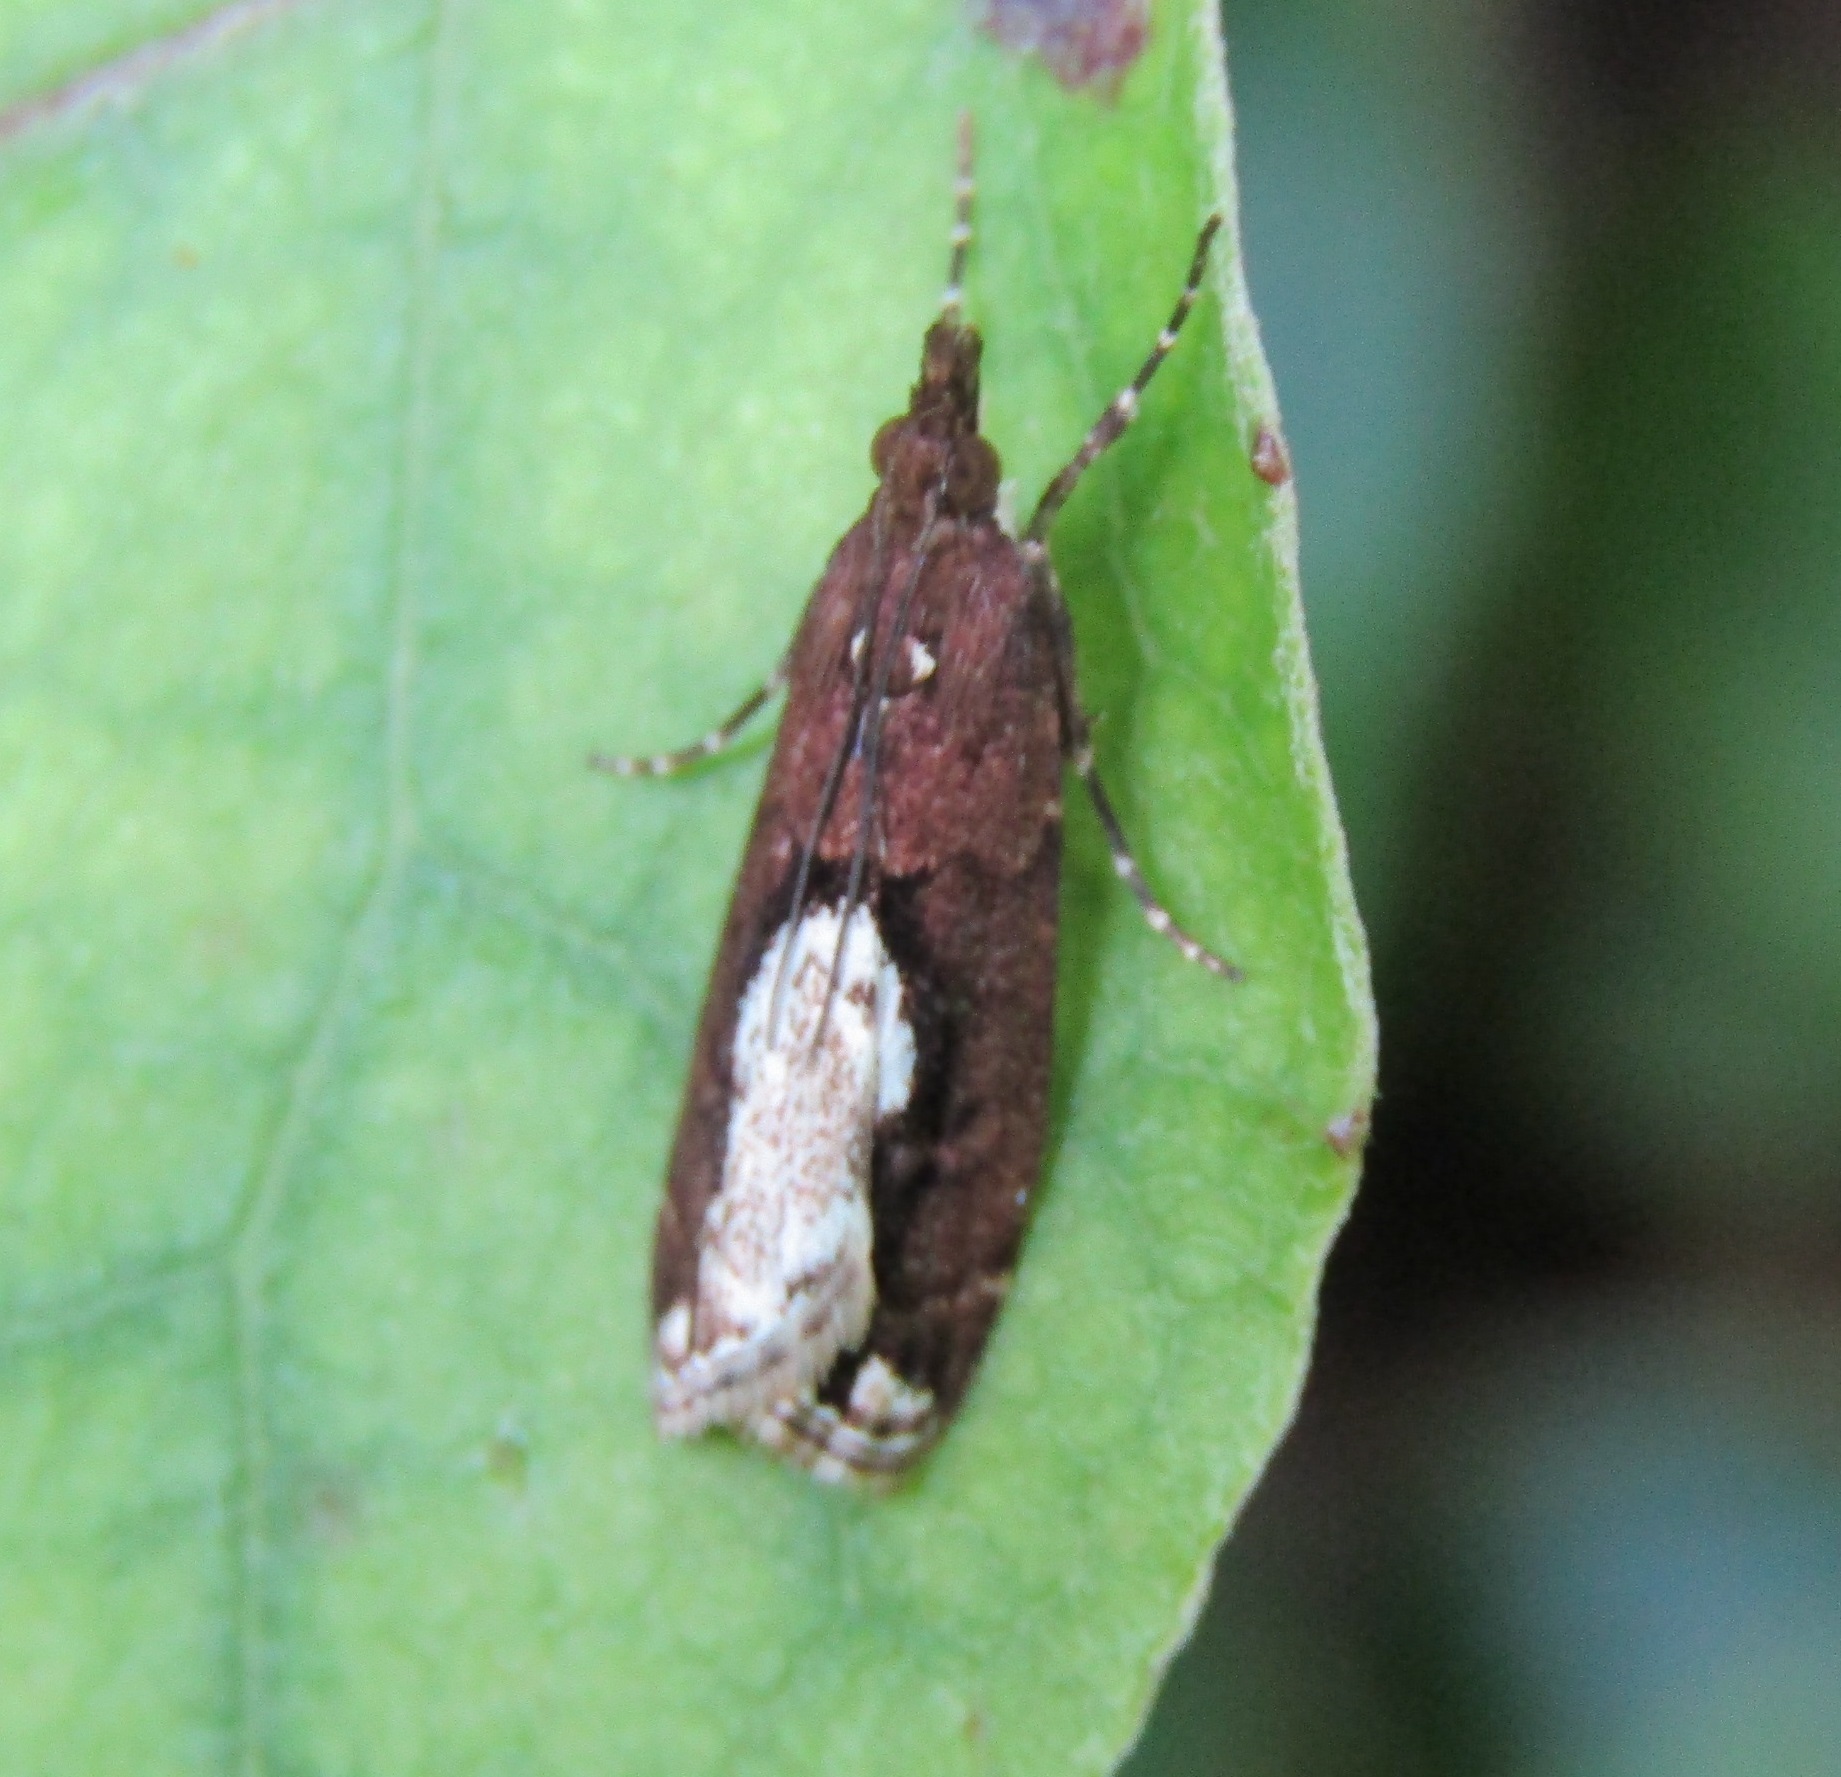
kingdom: Animalia
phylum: Arthropoda
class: Insecta
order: Lepidoptera
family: Crambidae
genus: Eudonia
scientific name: Eudonia hemiplaca
